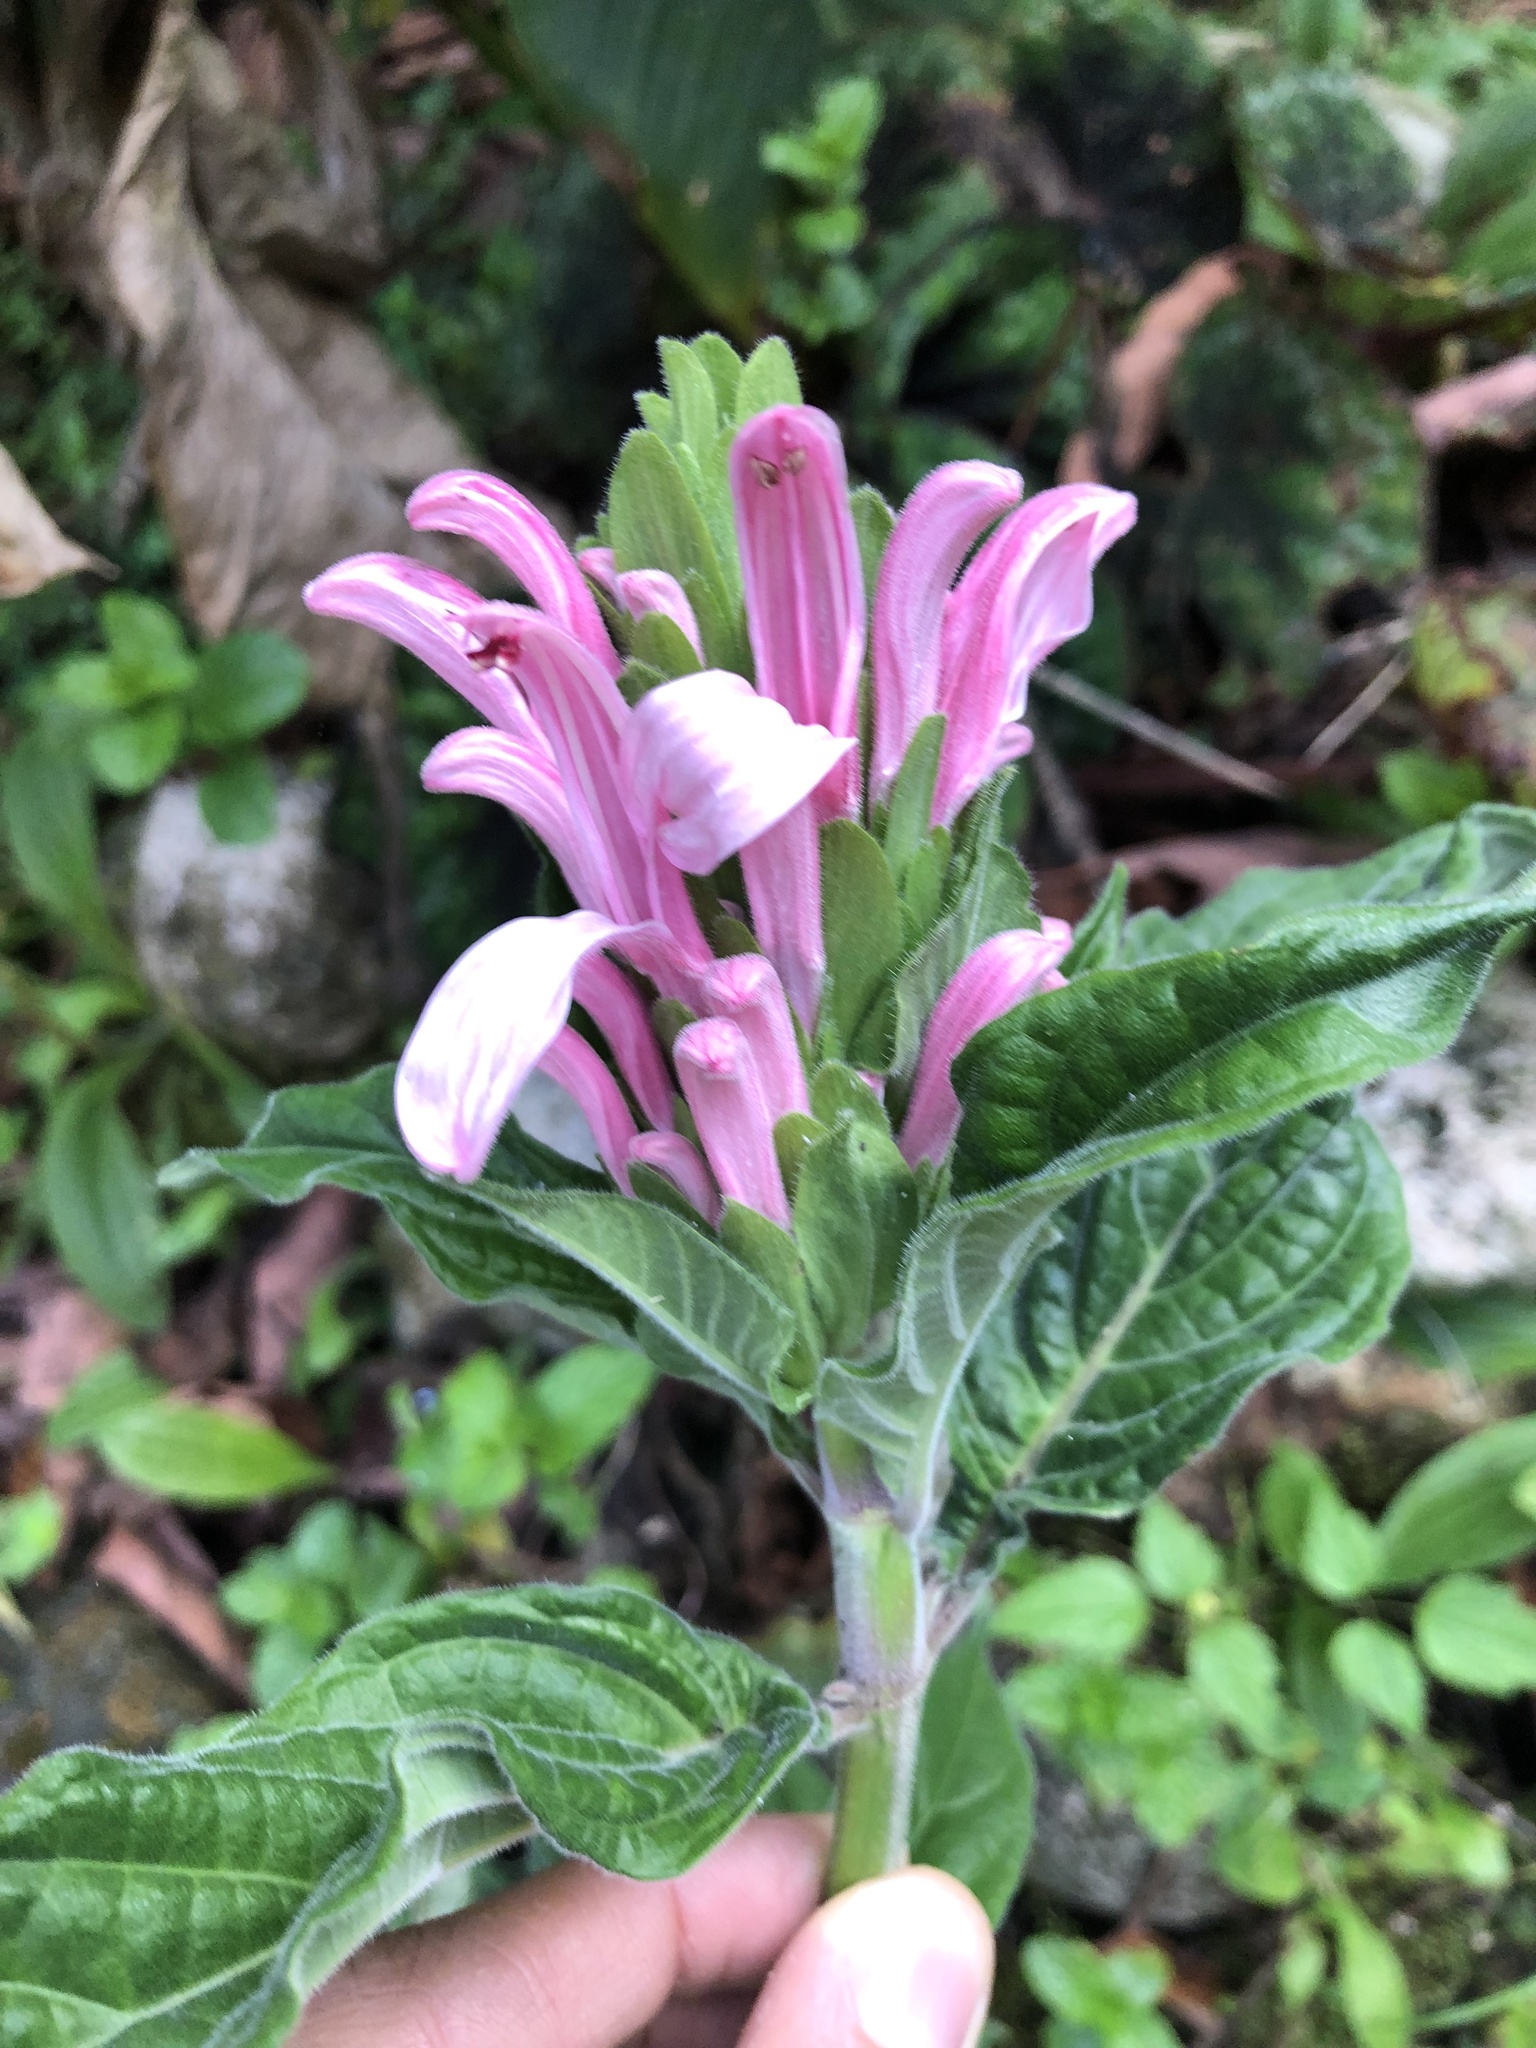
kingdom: Plantae
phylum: Tracheophyta
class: Magnoliopsida
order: Lamiales
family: Acanthaceae
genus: Justicia
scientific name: Justicia carnea
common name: Brazilian-plume
